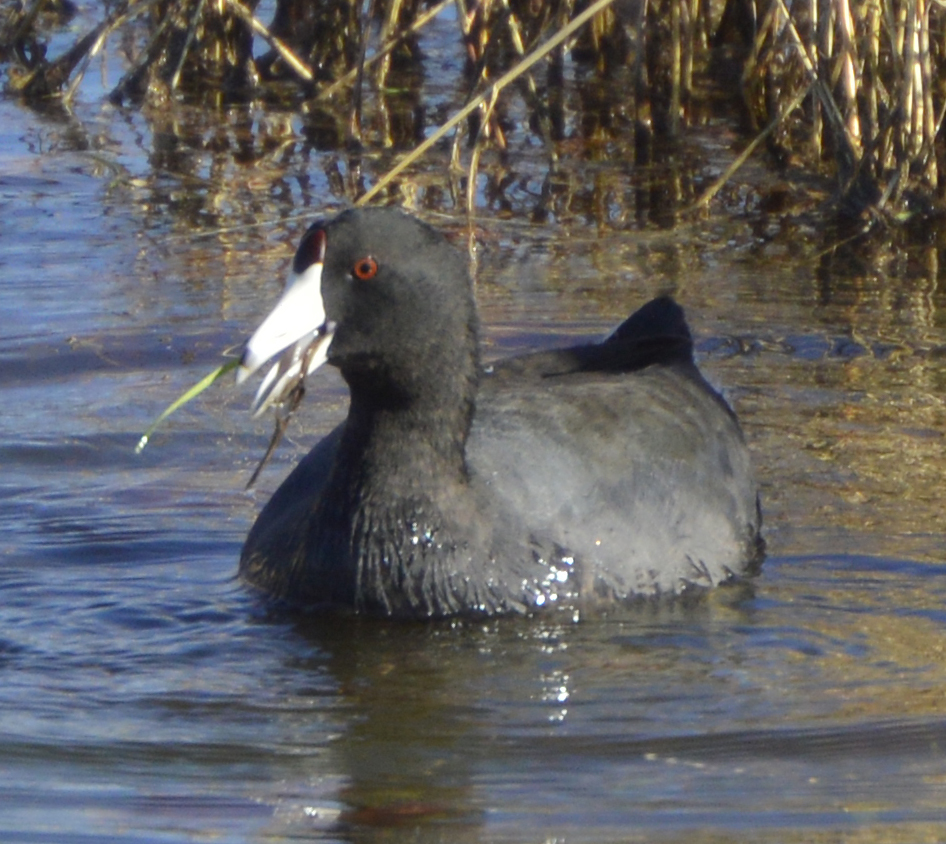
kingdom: Animalia
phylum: Chordata
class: Aves
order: Gruiformes
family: Rallidae
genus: Fulica
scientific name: Fulica americana
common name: American coot
